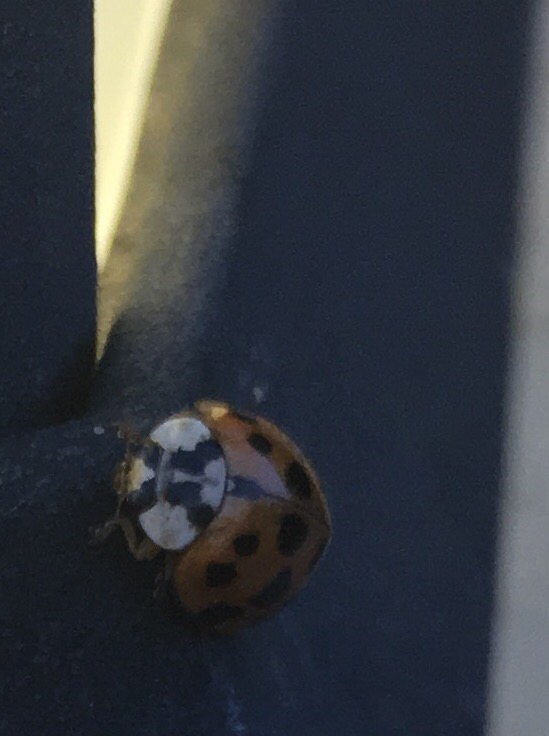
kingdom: Animalia
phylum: Arthropoda
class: Insecta
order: Coleoptera
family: Coccinellidae
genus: Harmonia
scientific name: Harmonia axyridis
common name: Harlequin ladybird
